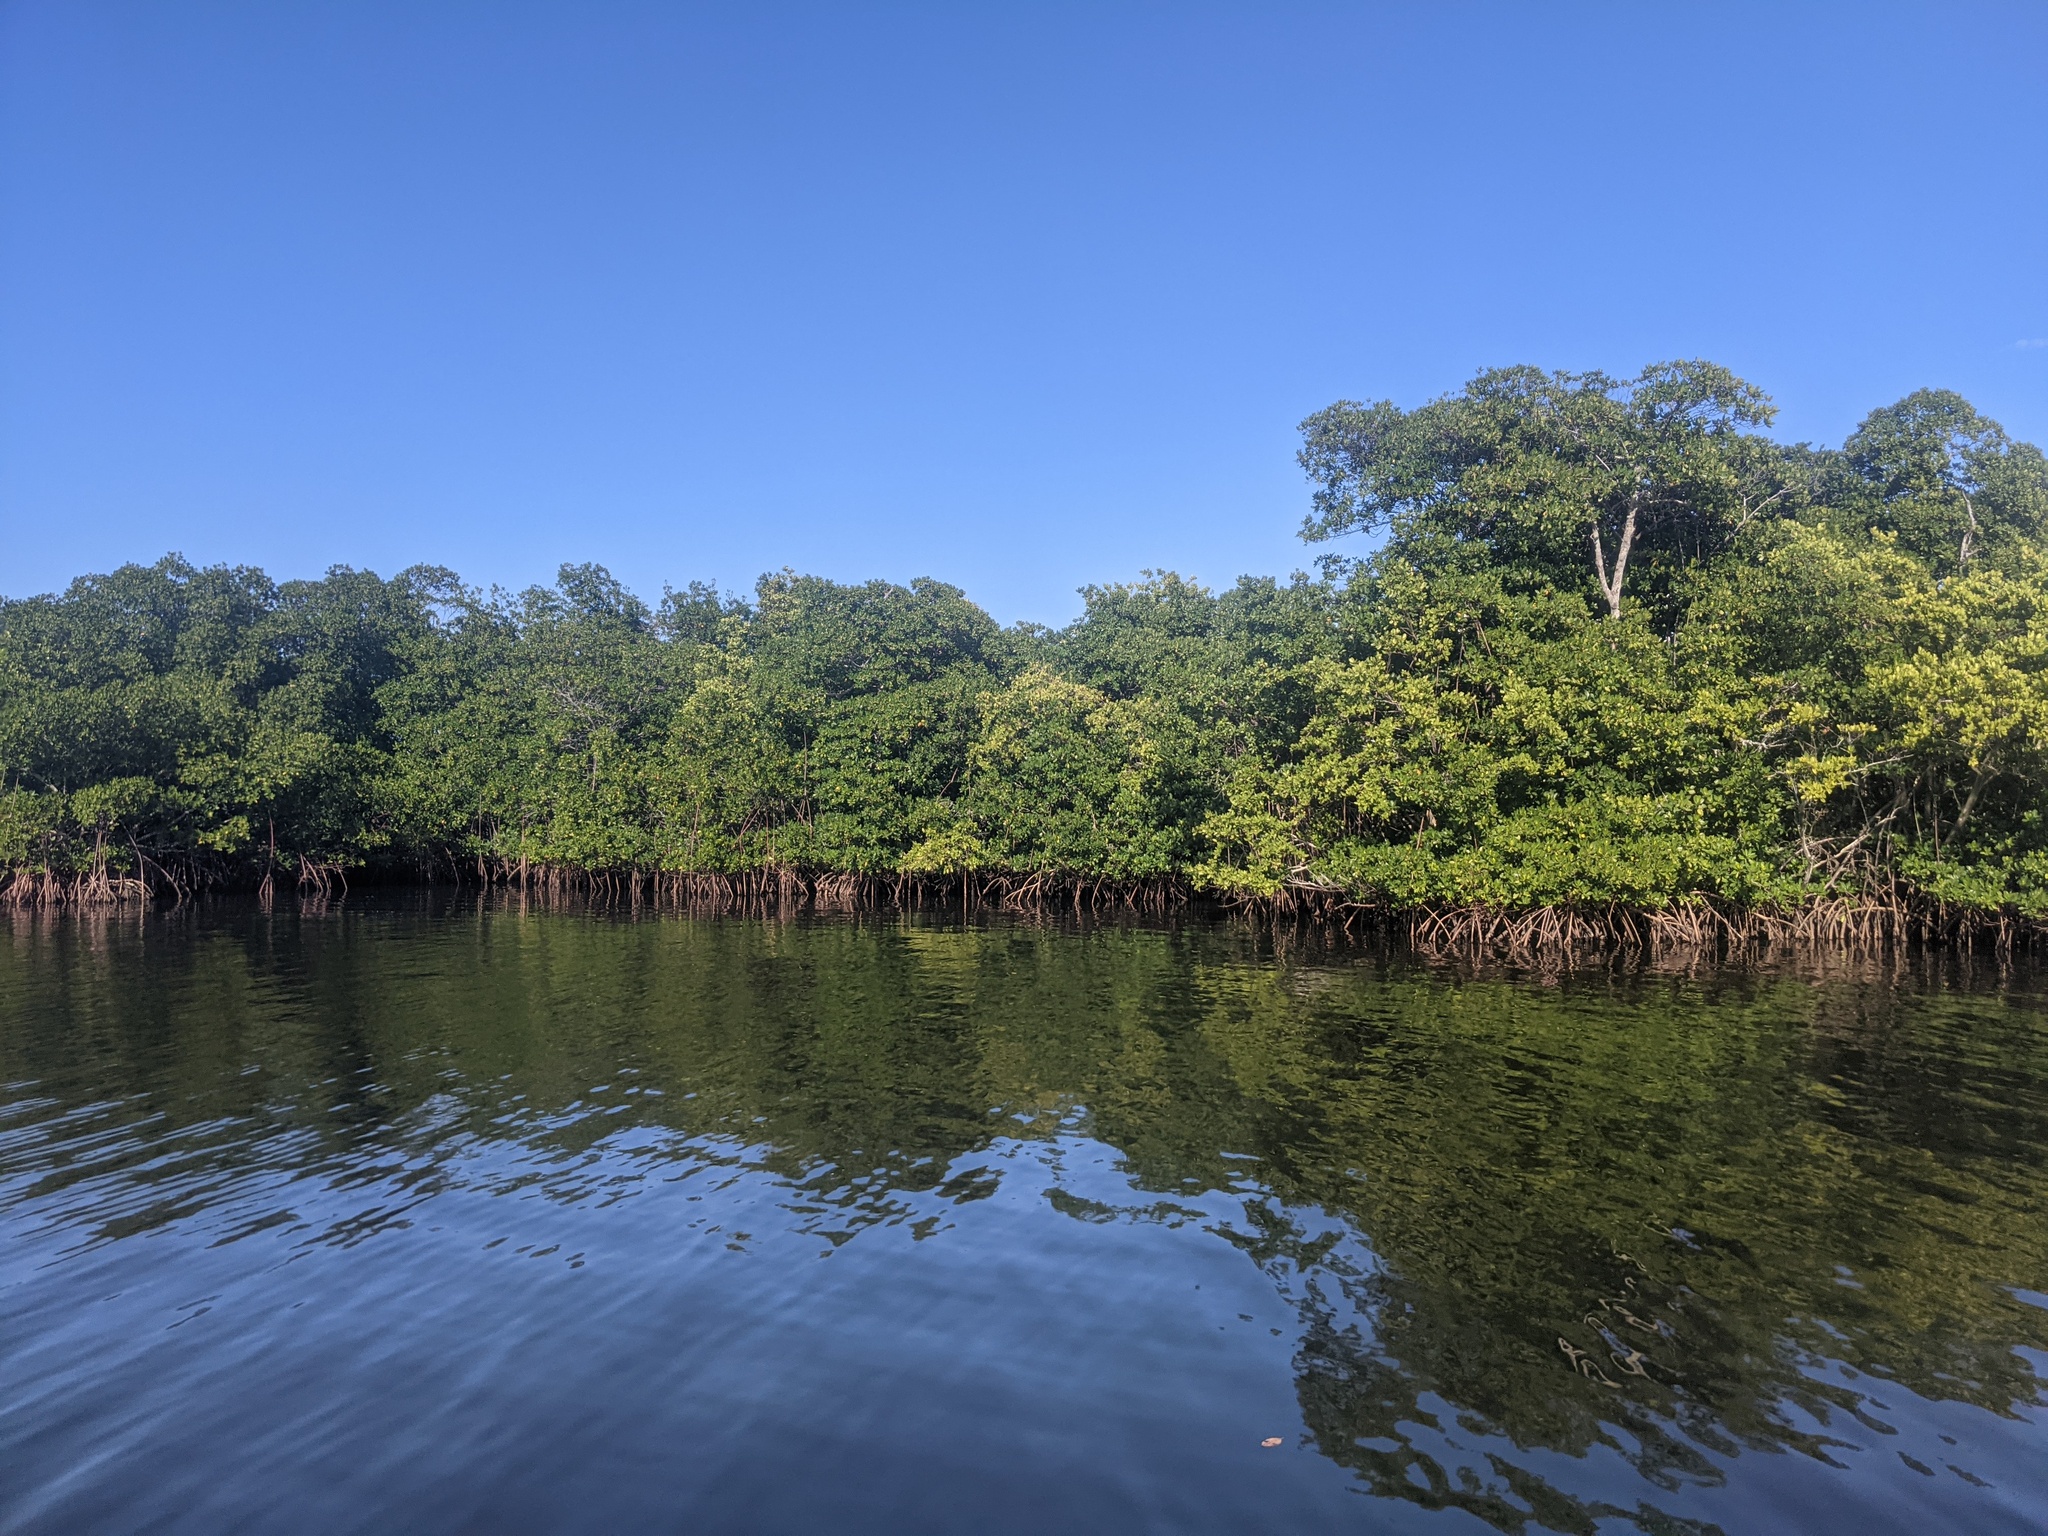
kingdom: Plantae
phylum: Tracheophyta
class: Magnoliopsida
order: Malpighiales
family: Rhizophoraceae
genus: Rhizophora
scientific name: Rhizophora mangle
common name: Red mangrove
